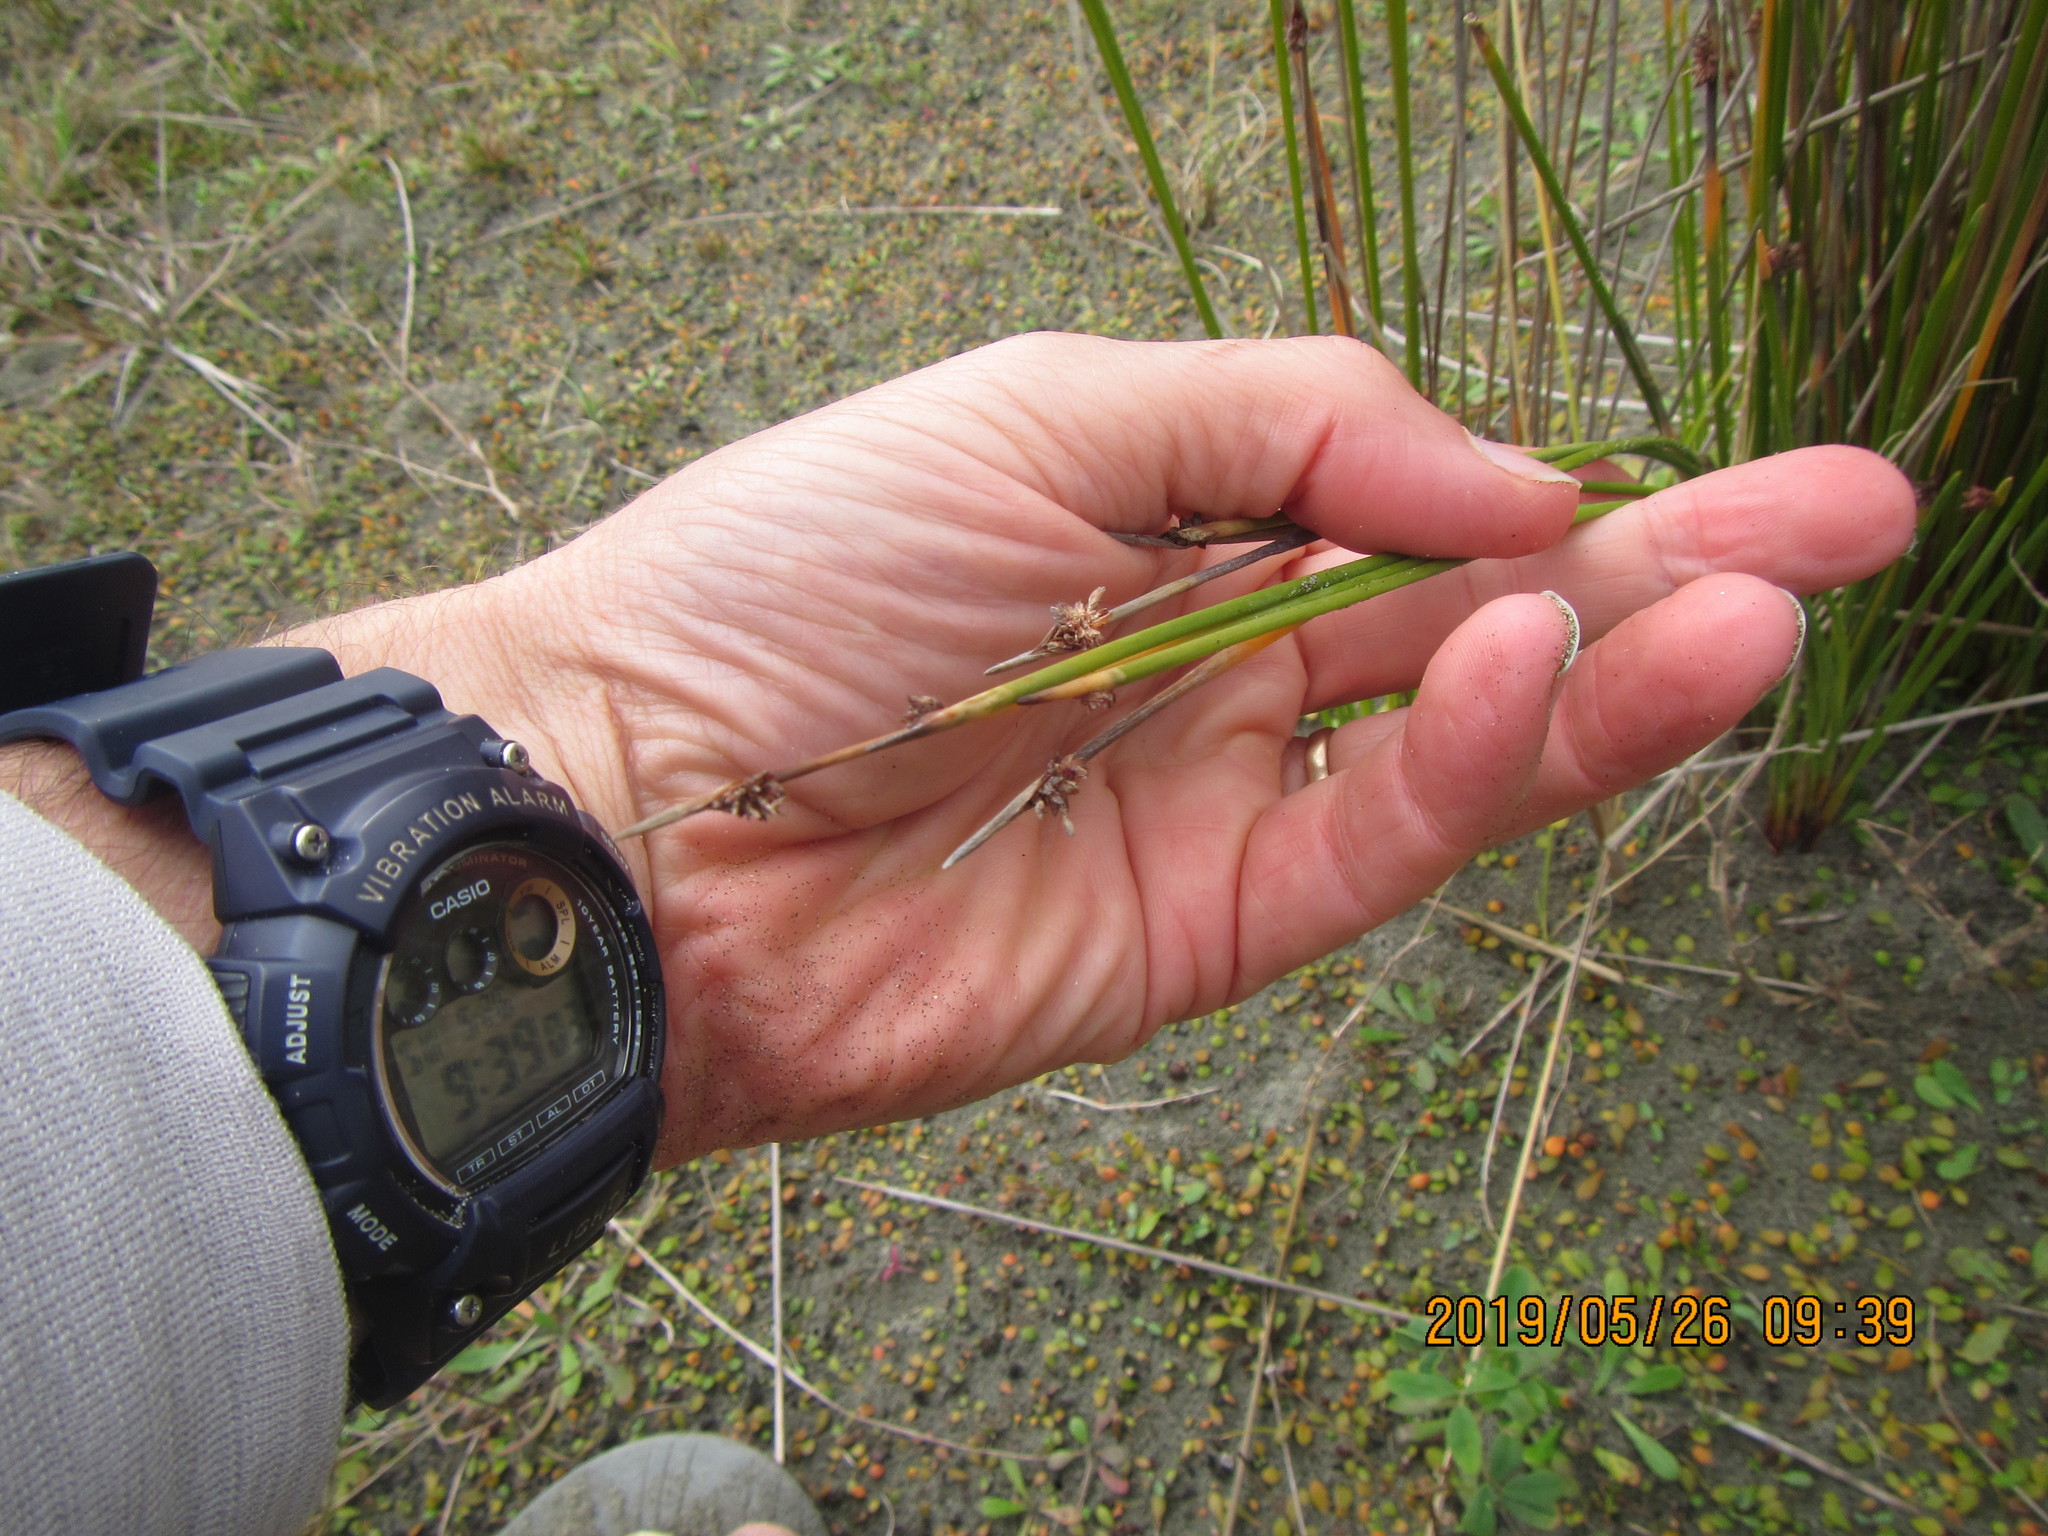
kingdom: Plantae
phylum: Tracheophyta
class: Liliopsida
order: Poales
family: Cyperaceae
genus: Ficinia
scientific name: Ficinia nodosa
